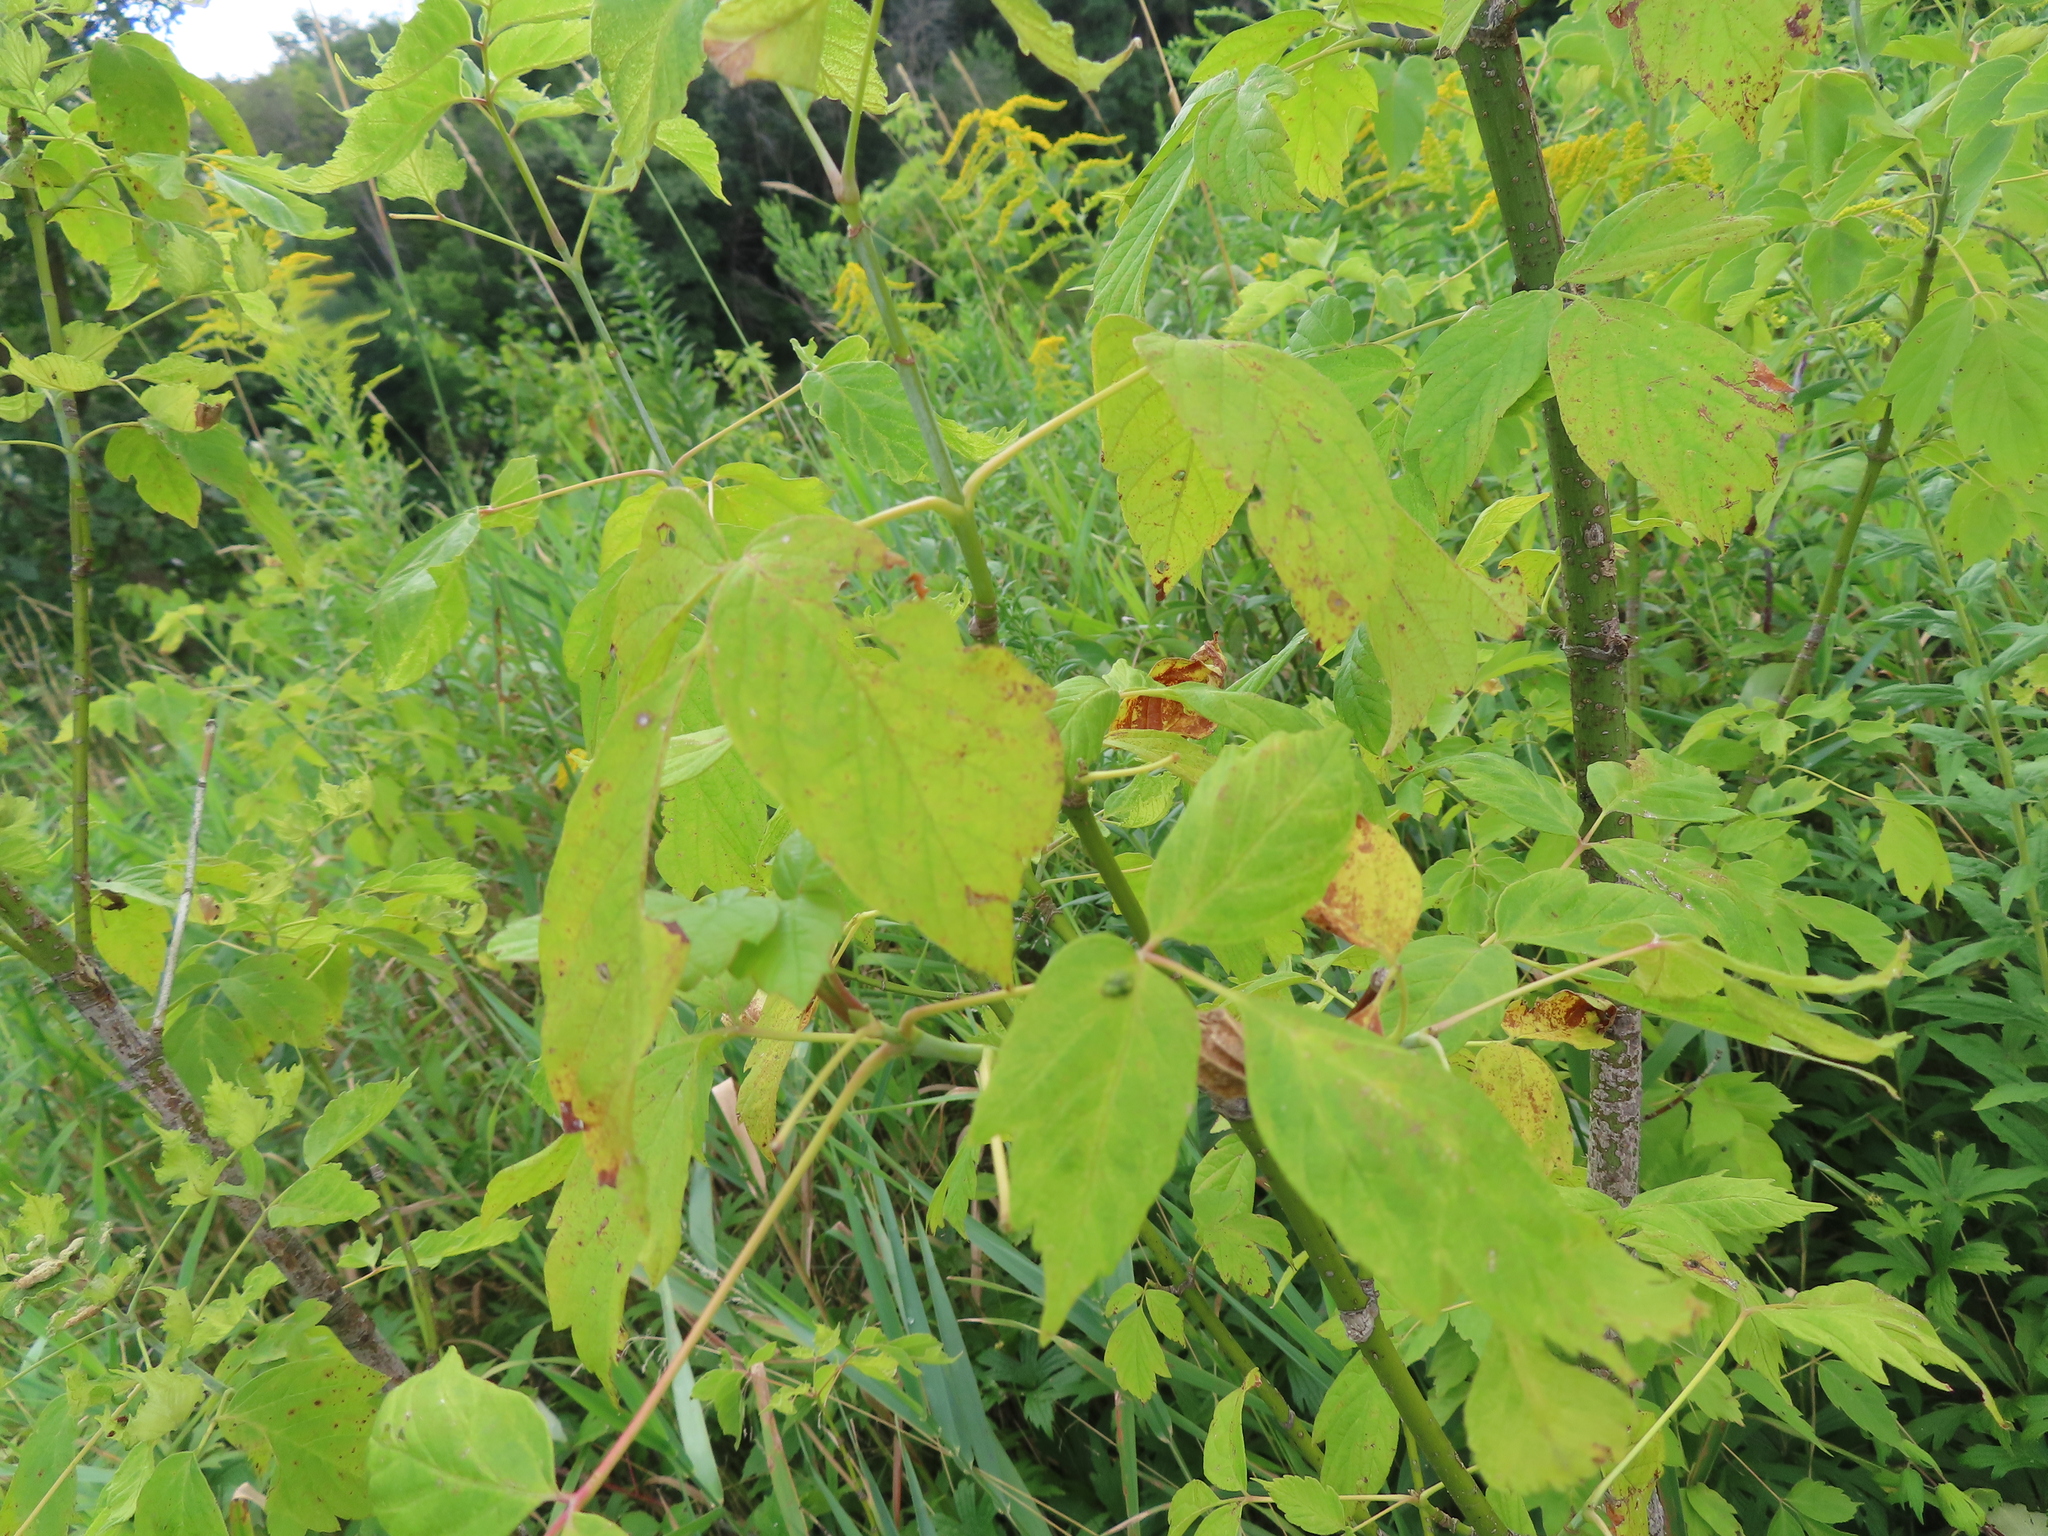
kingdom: Plantae
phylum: Tracheophyta
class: Magnoliopsida
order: Sapindales
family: Sapindaceae
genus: Acer
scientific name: Acer negundo
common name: Ashleaf maple
